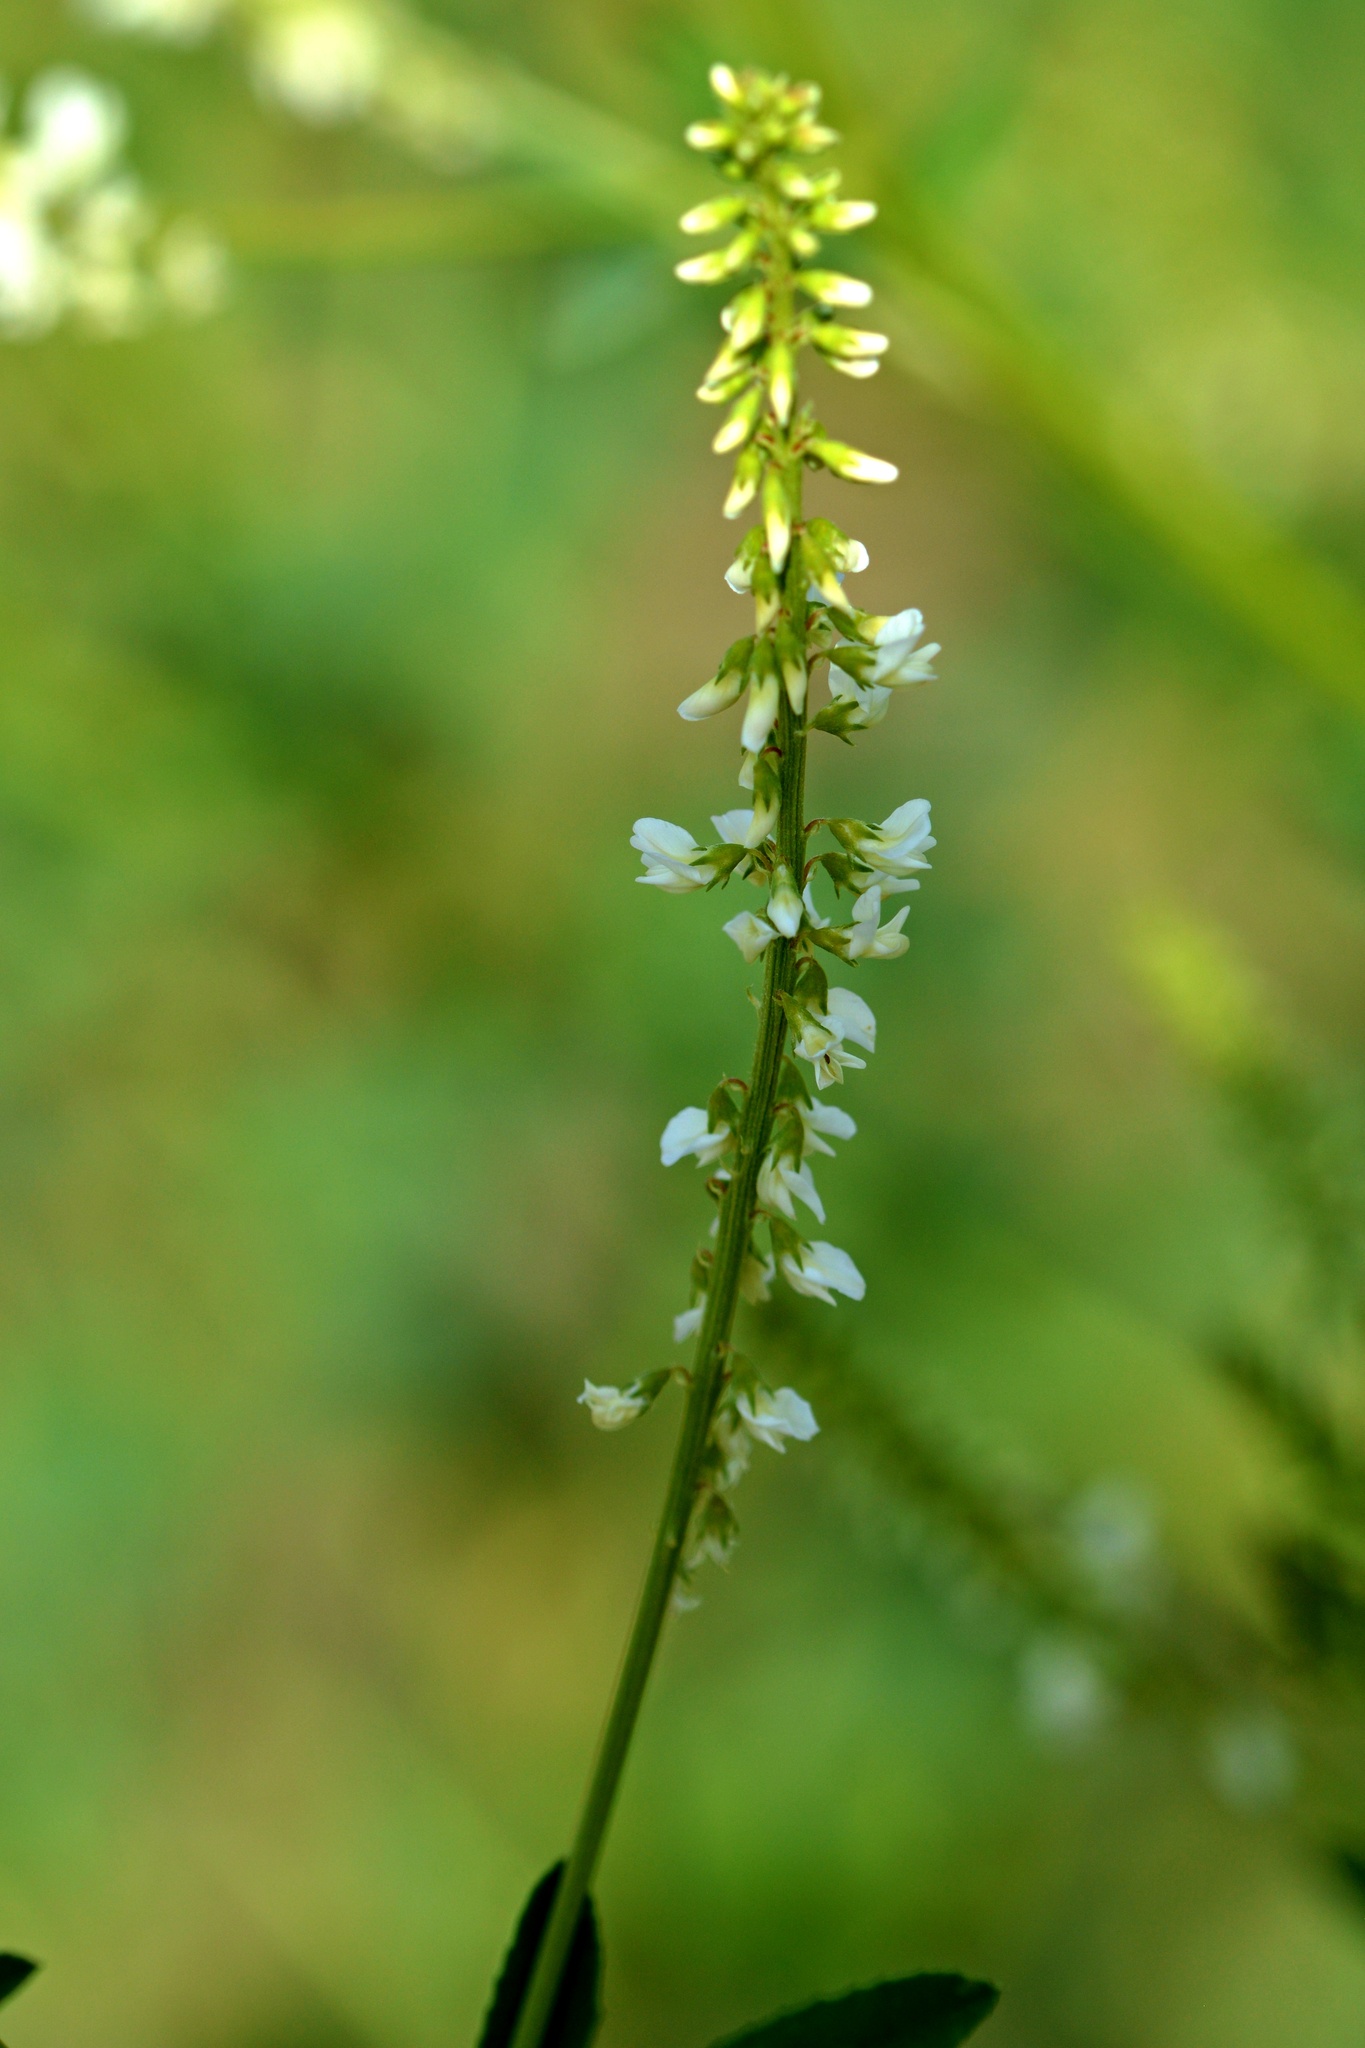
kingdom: Plantae
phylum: Tracheophyta
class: Magnoliopsida
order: Fabales
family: Fabaceae
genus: Melilotus
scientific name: Melilotus albus
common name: White melilot
